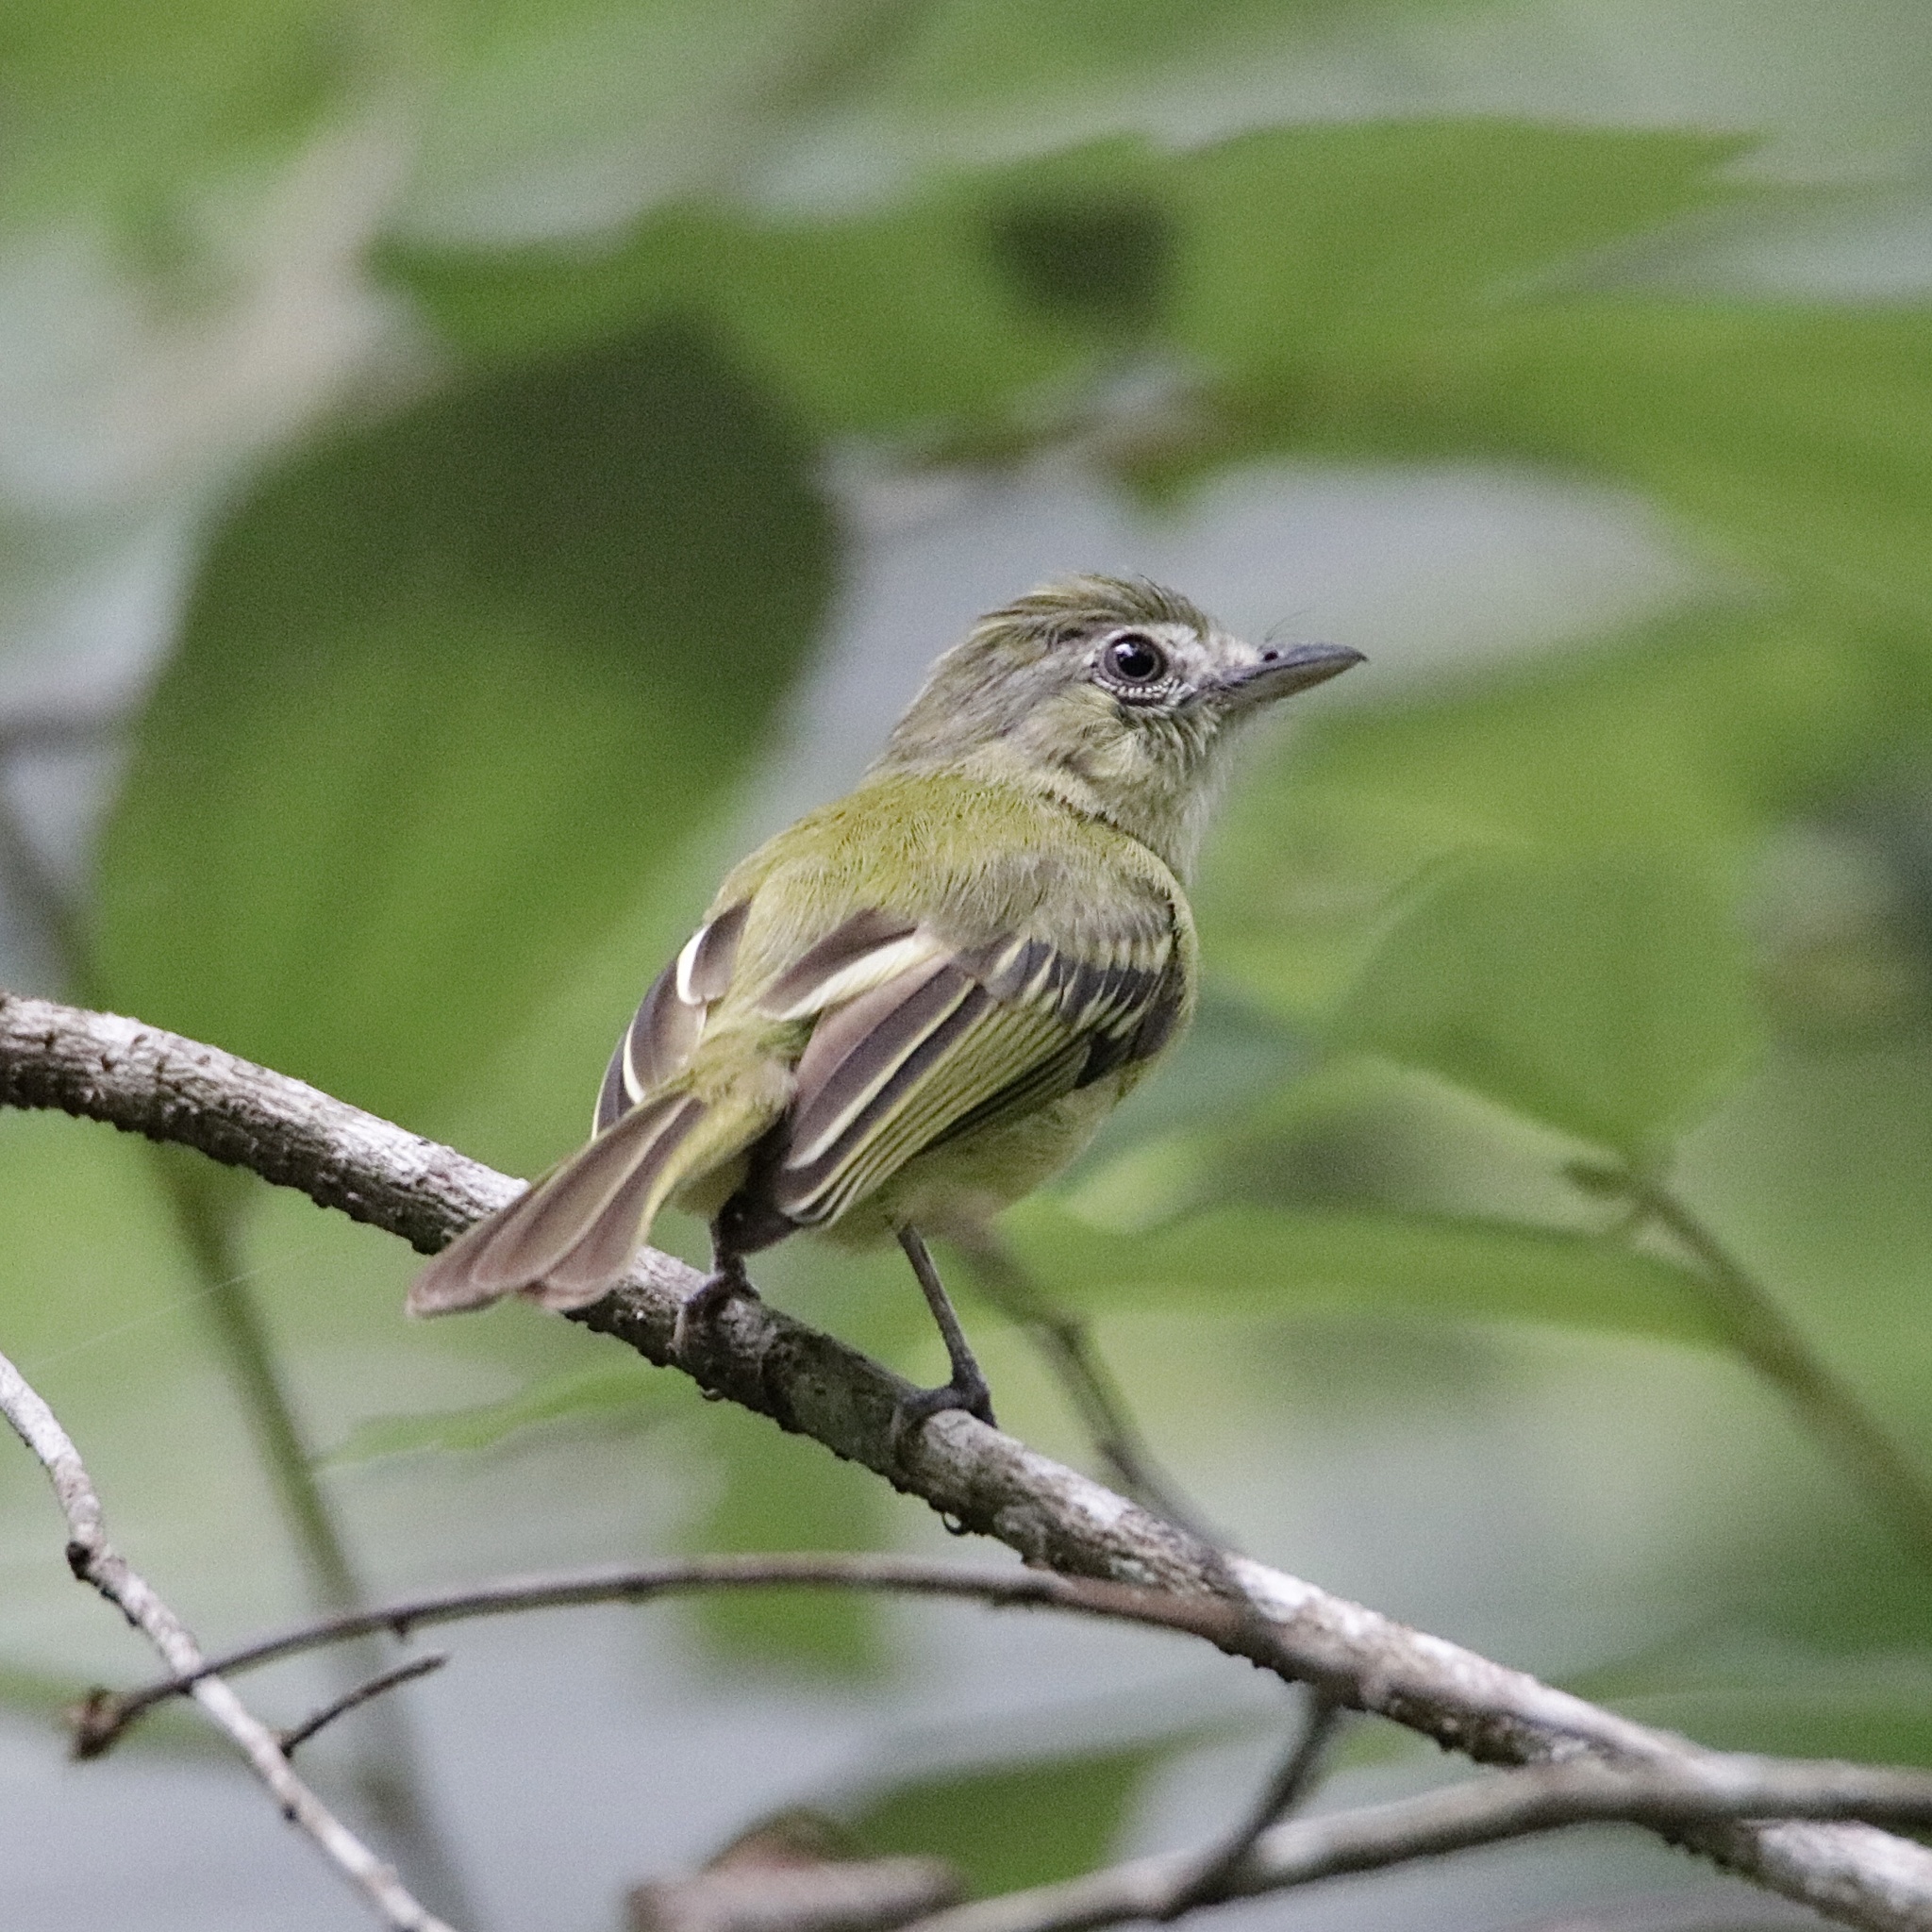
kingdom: Animalia
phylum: Chordata
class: Aves
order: Passeriformes
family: Tyrannidae
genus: Tolmomyias
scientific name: Tolmomyias sulphurescens
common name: Yellow-olive flycatcher
